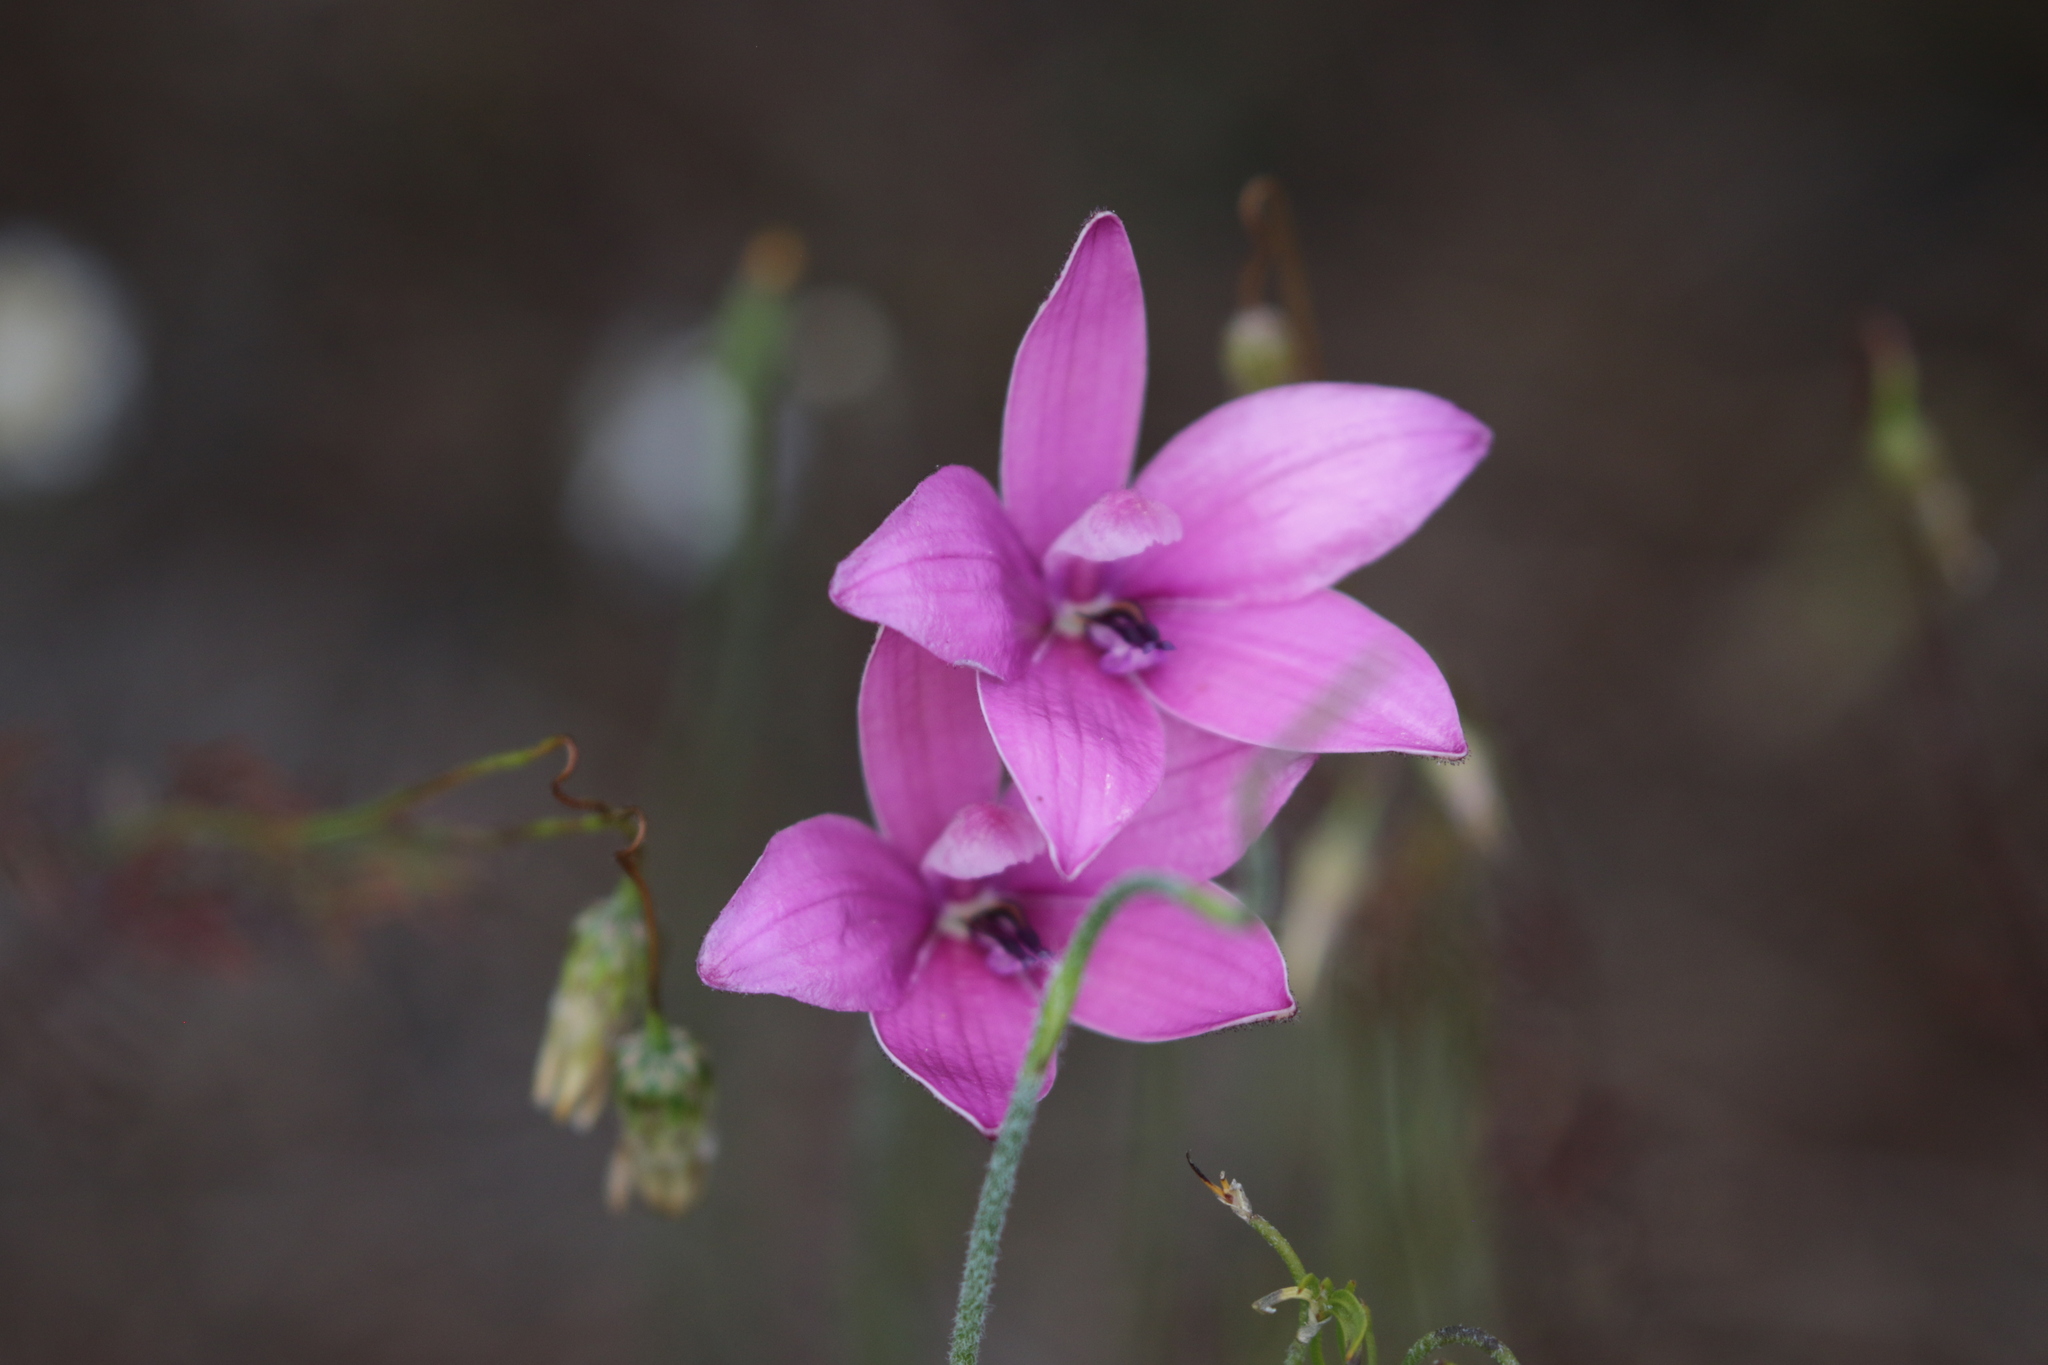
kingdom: Plantae
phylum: Tracheophyta
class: Liliopsida
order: Asparagales
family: Orchidaceae
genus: Caladenia
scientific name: Caladenia emarginata
